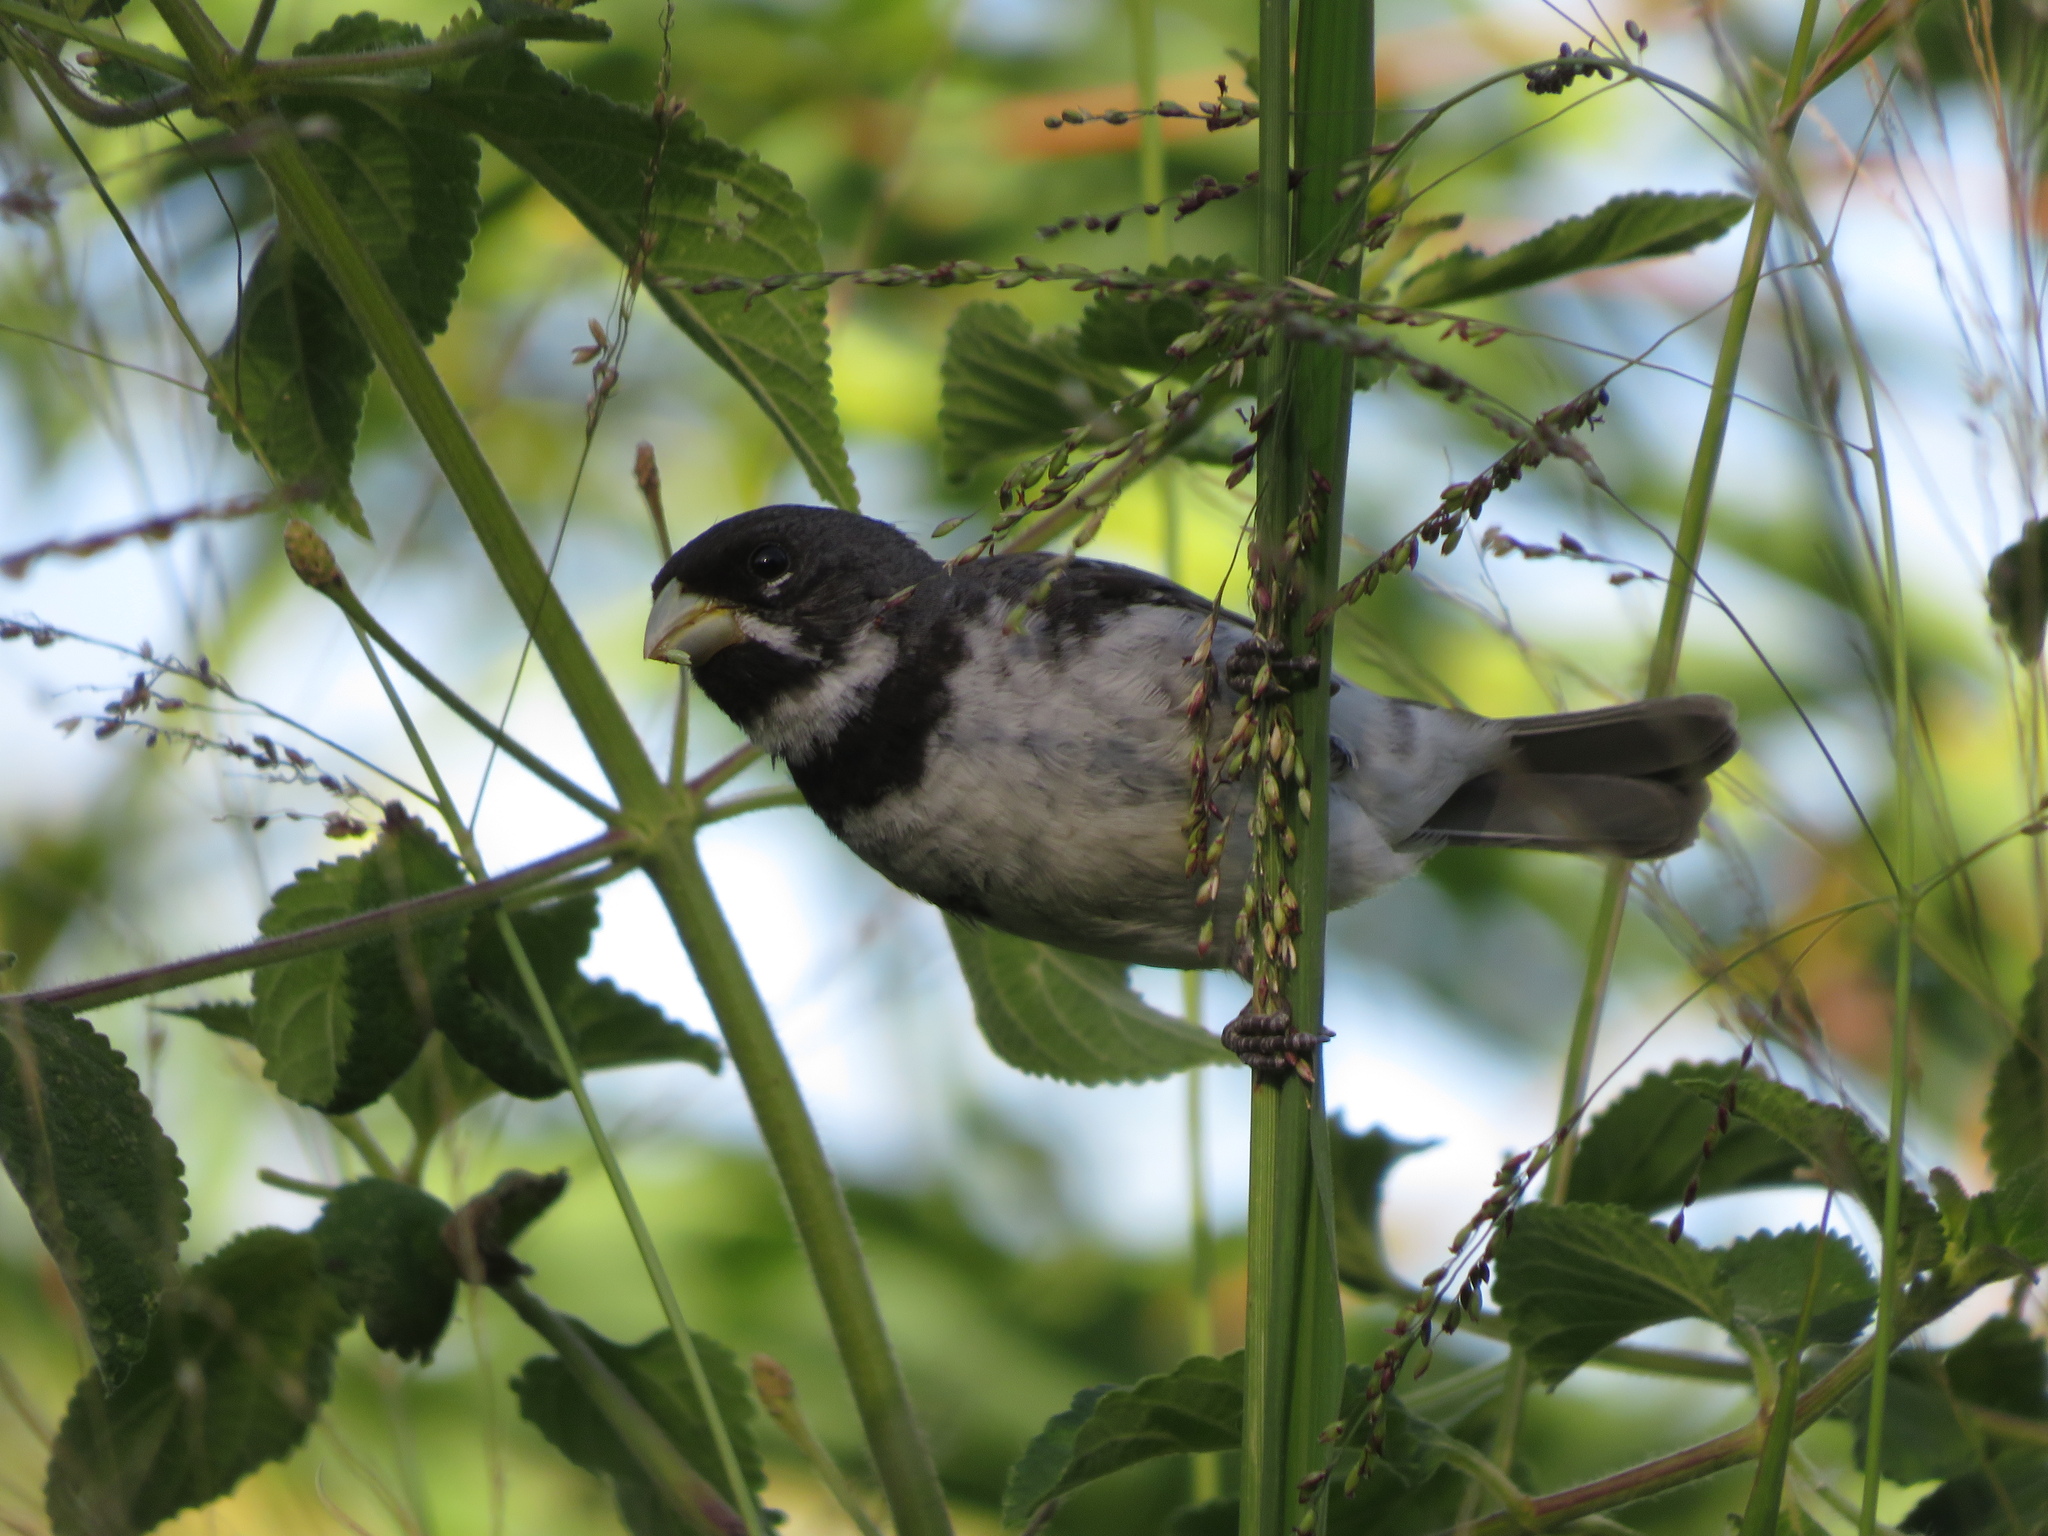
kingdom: Animalia
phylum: Chordata
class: Aves
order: Passeriformes
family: Thraupidae
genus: Sporophila
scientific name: Sporophila caerulescens
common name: Double-collared seedeater
